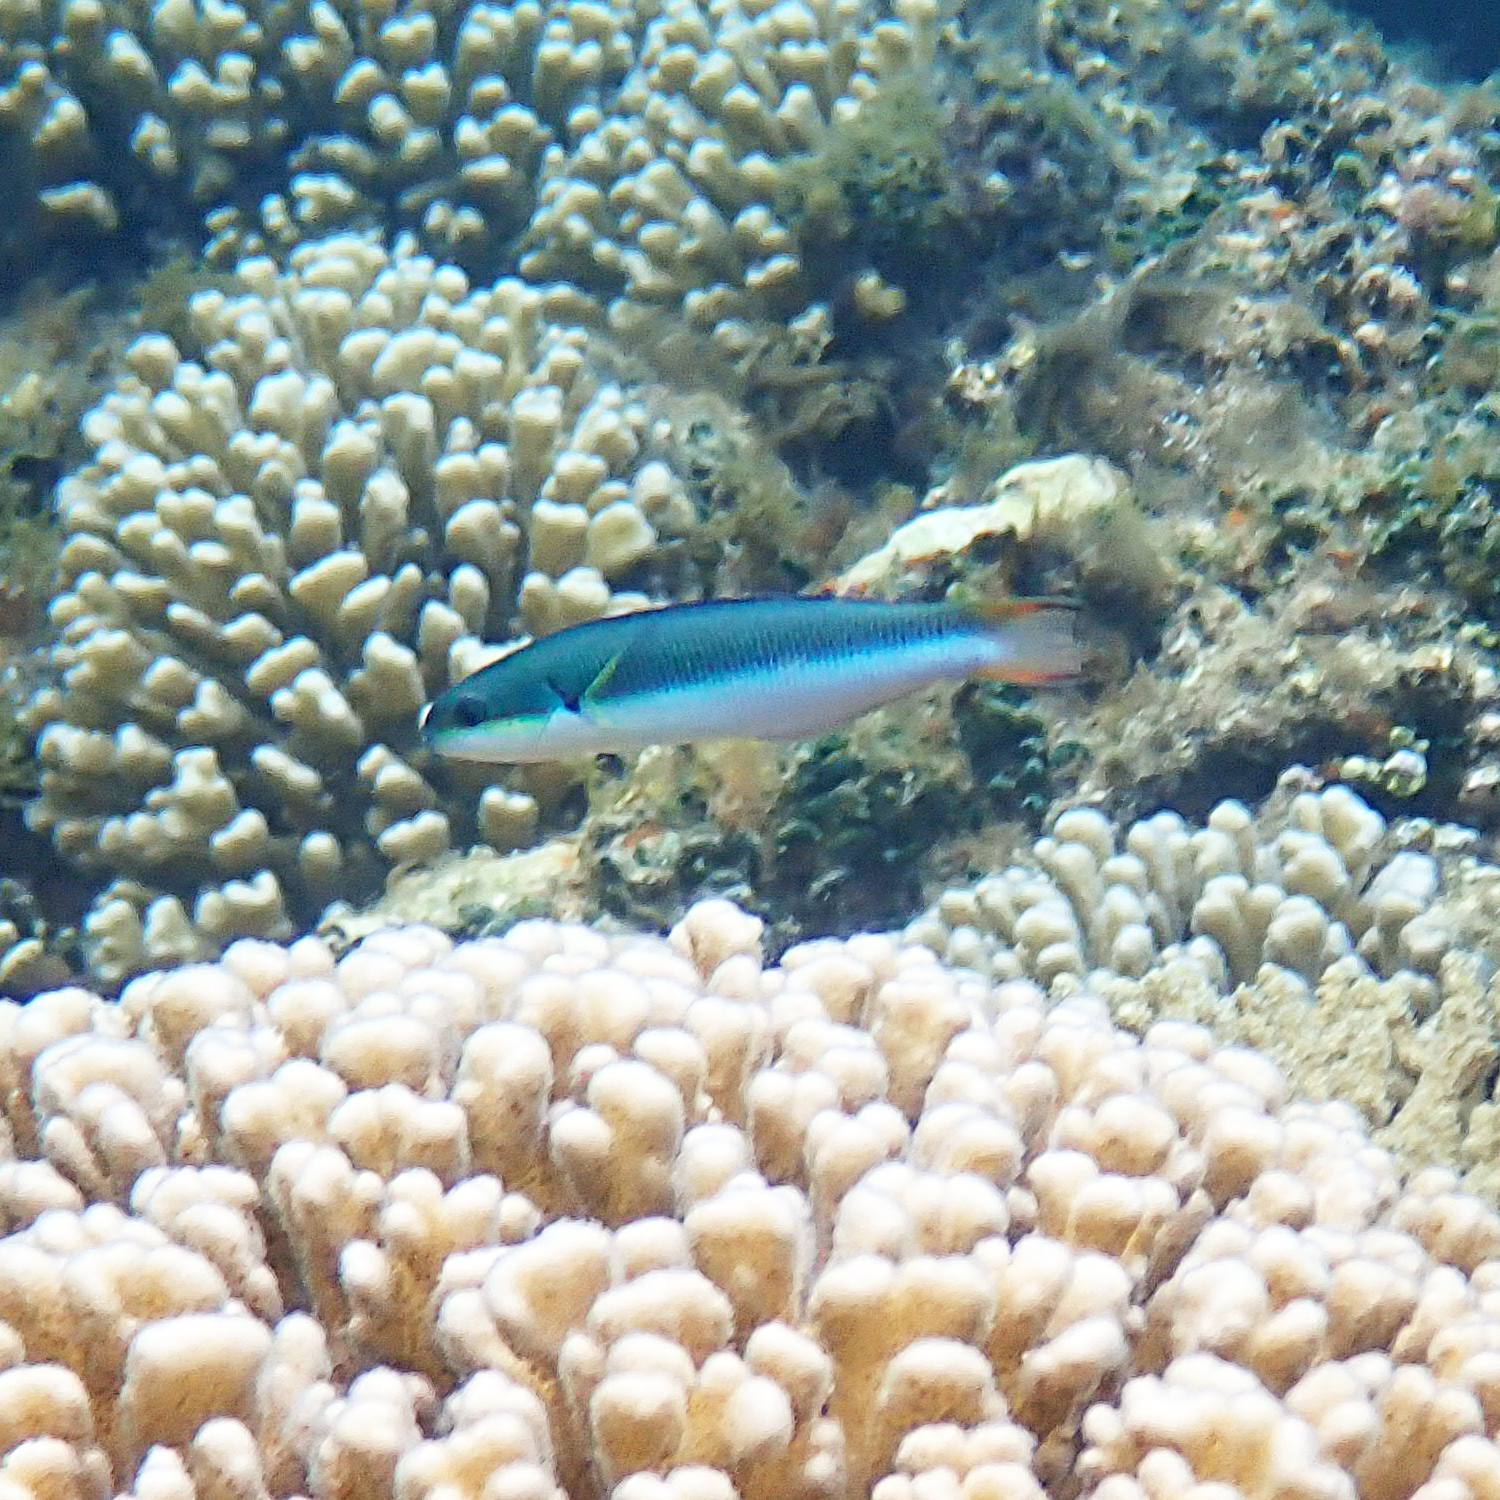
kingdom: Animalia
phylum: Chordata
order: Perciformes
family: Labridae
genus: Thalassoma
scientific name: Thalassoma amblycephalum
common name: Bluehead wrasse
